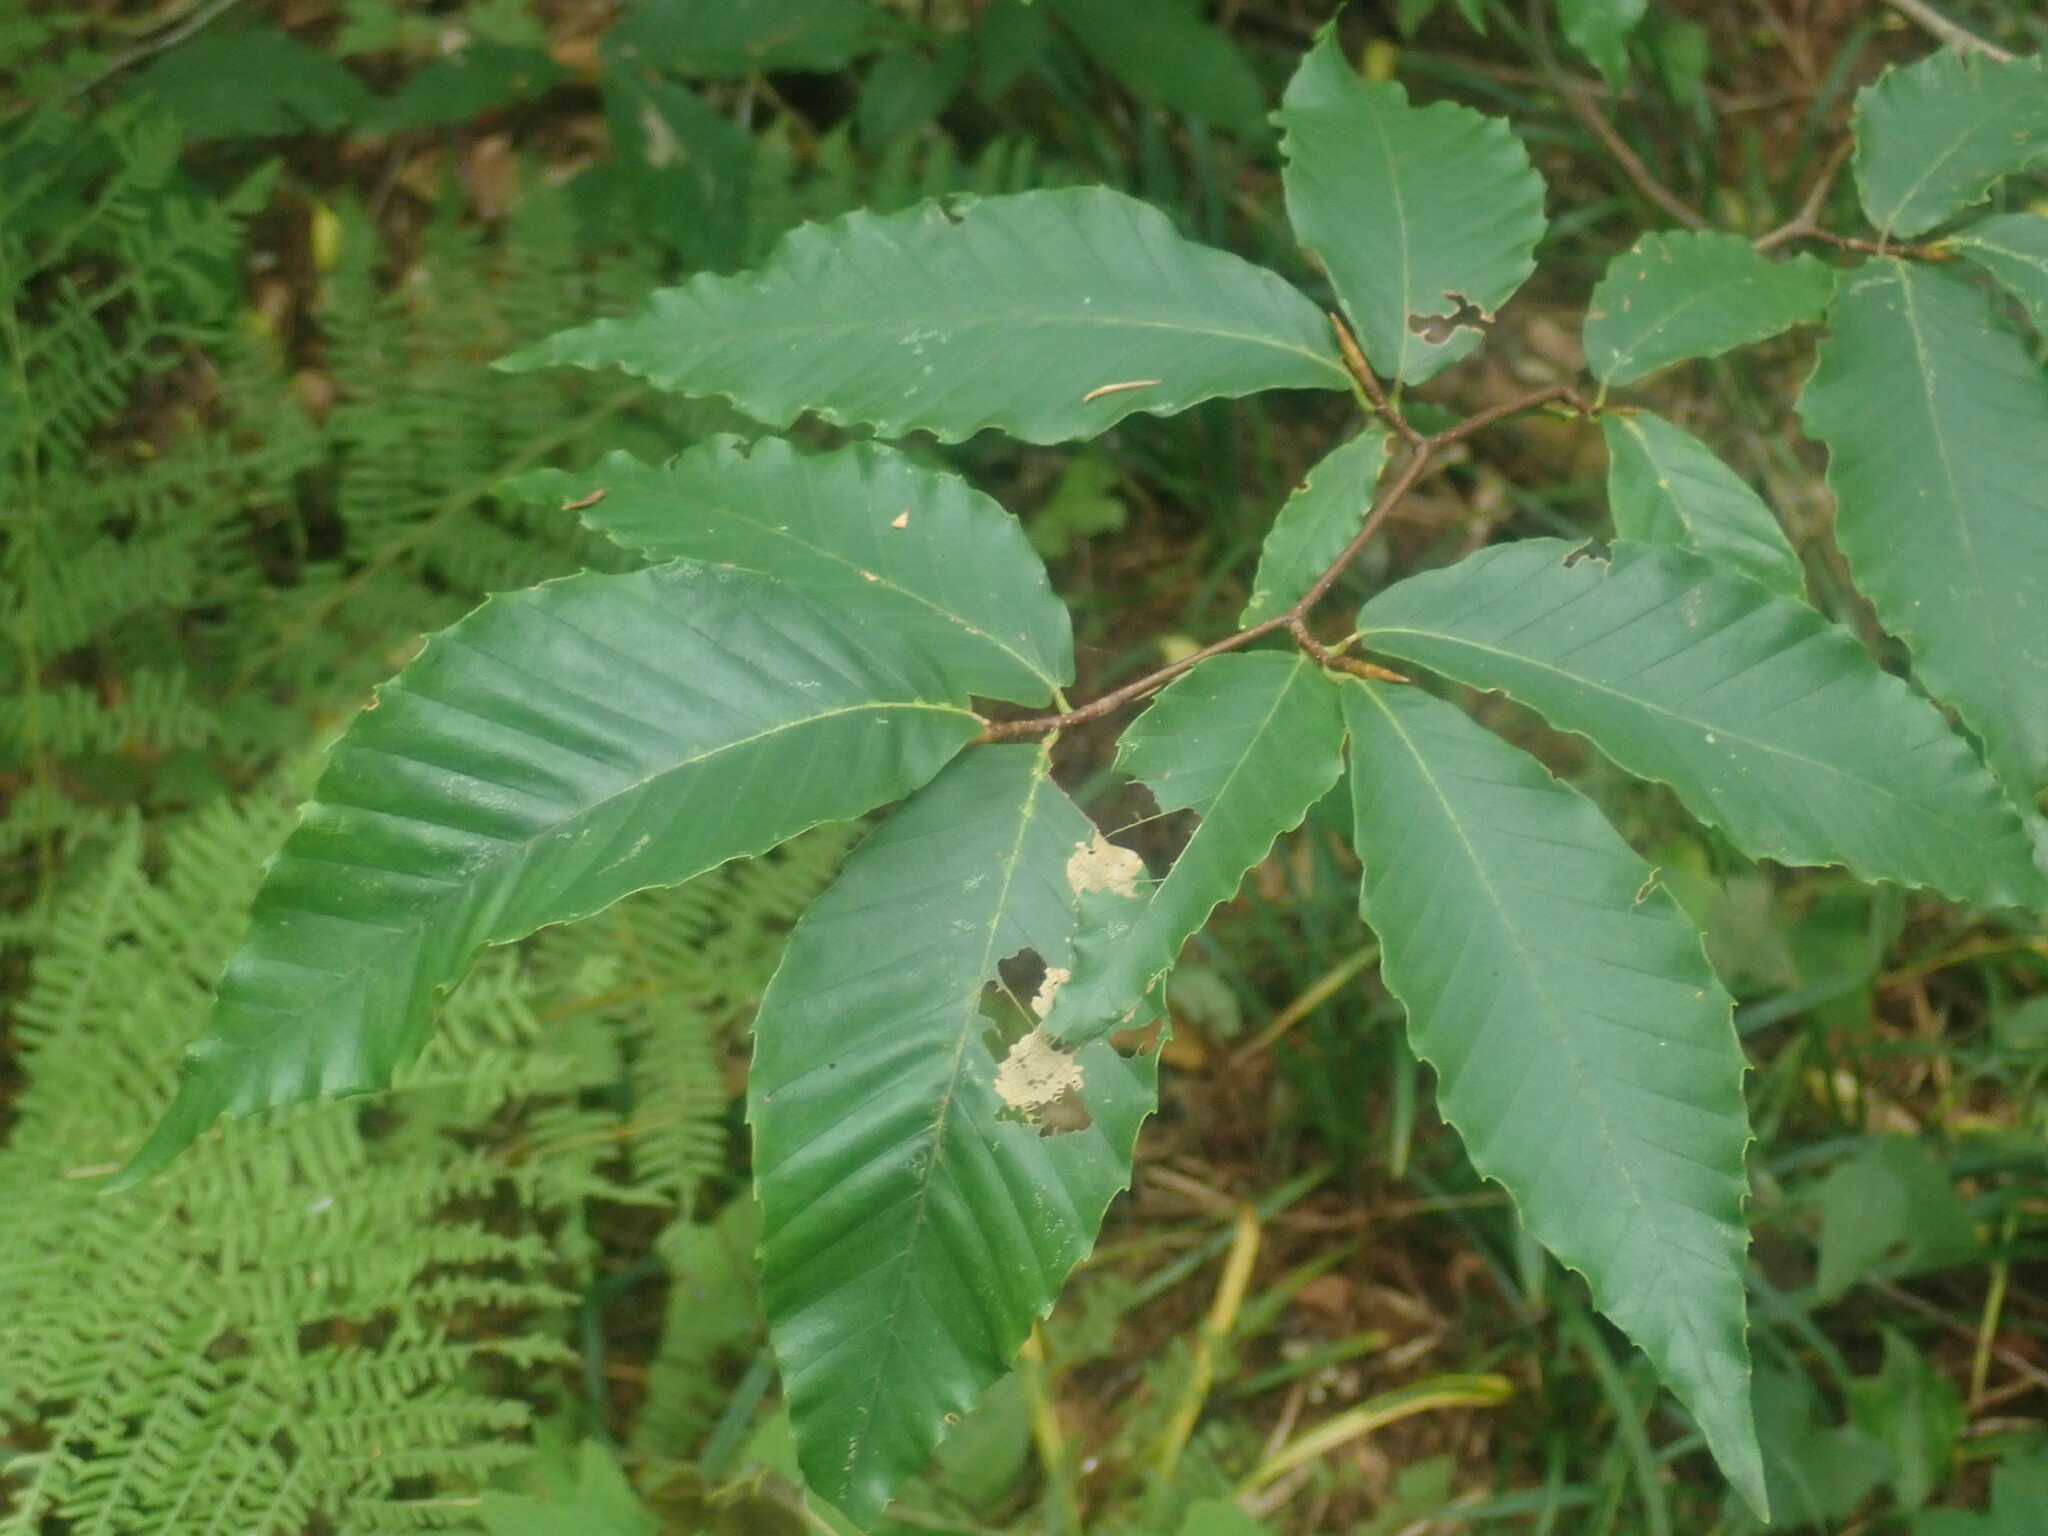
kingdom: Plantae
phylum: Tracheophyta
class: Magnoliopsida
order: Fagales
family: Fagaceae
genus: Fagus
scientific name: Fagus grandifolia
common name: American beech
